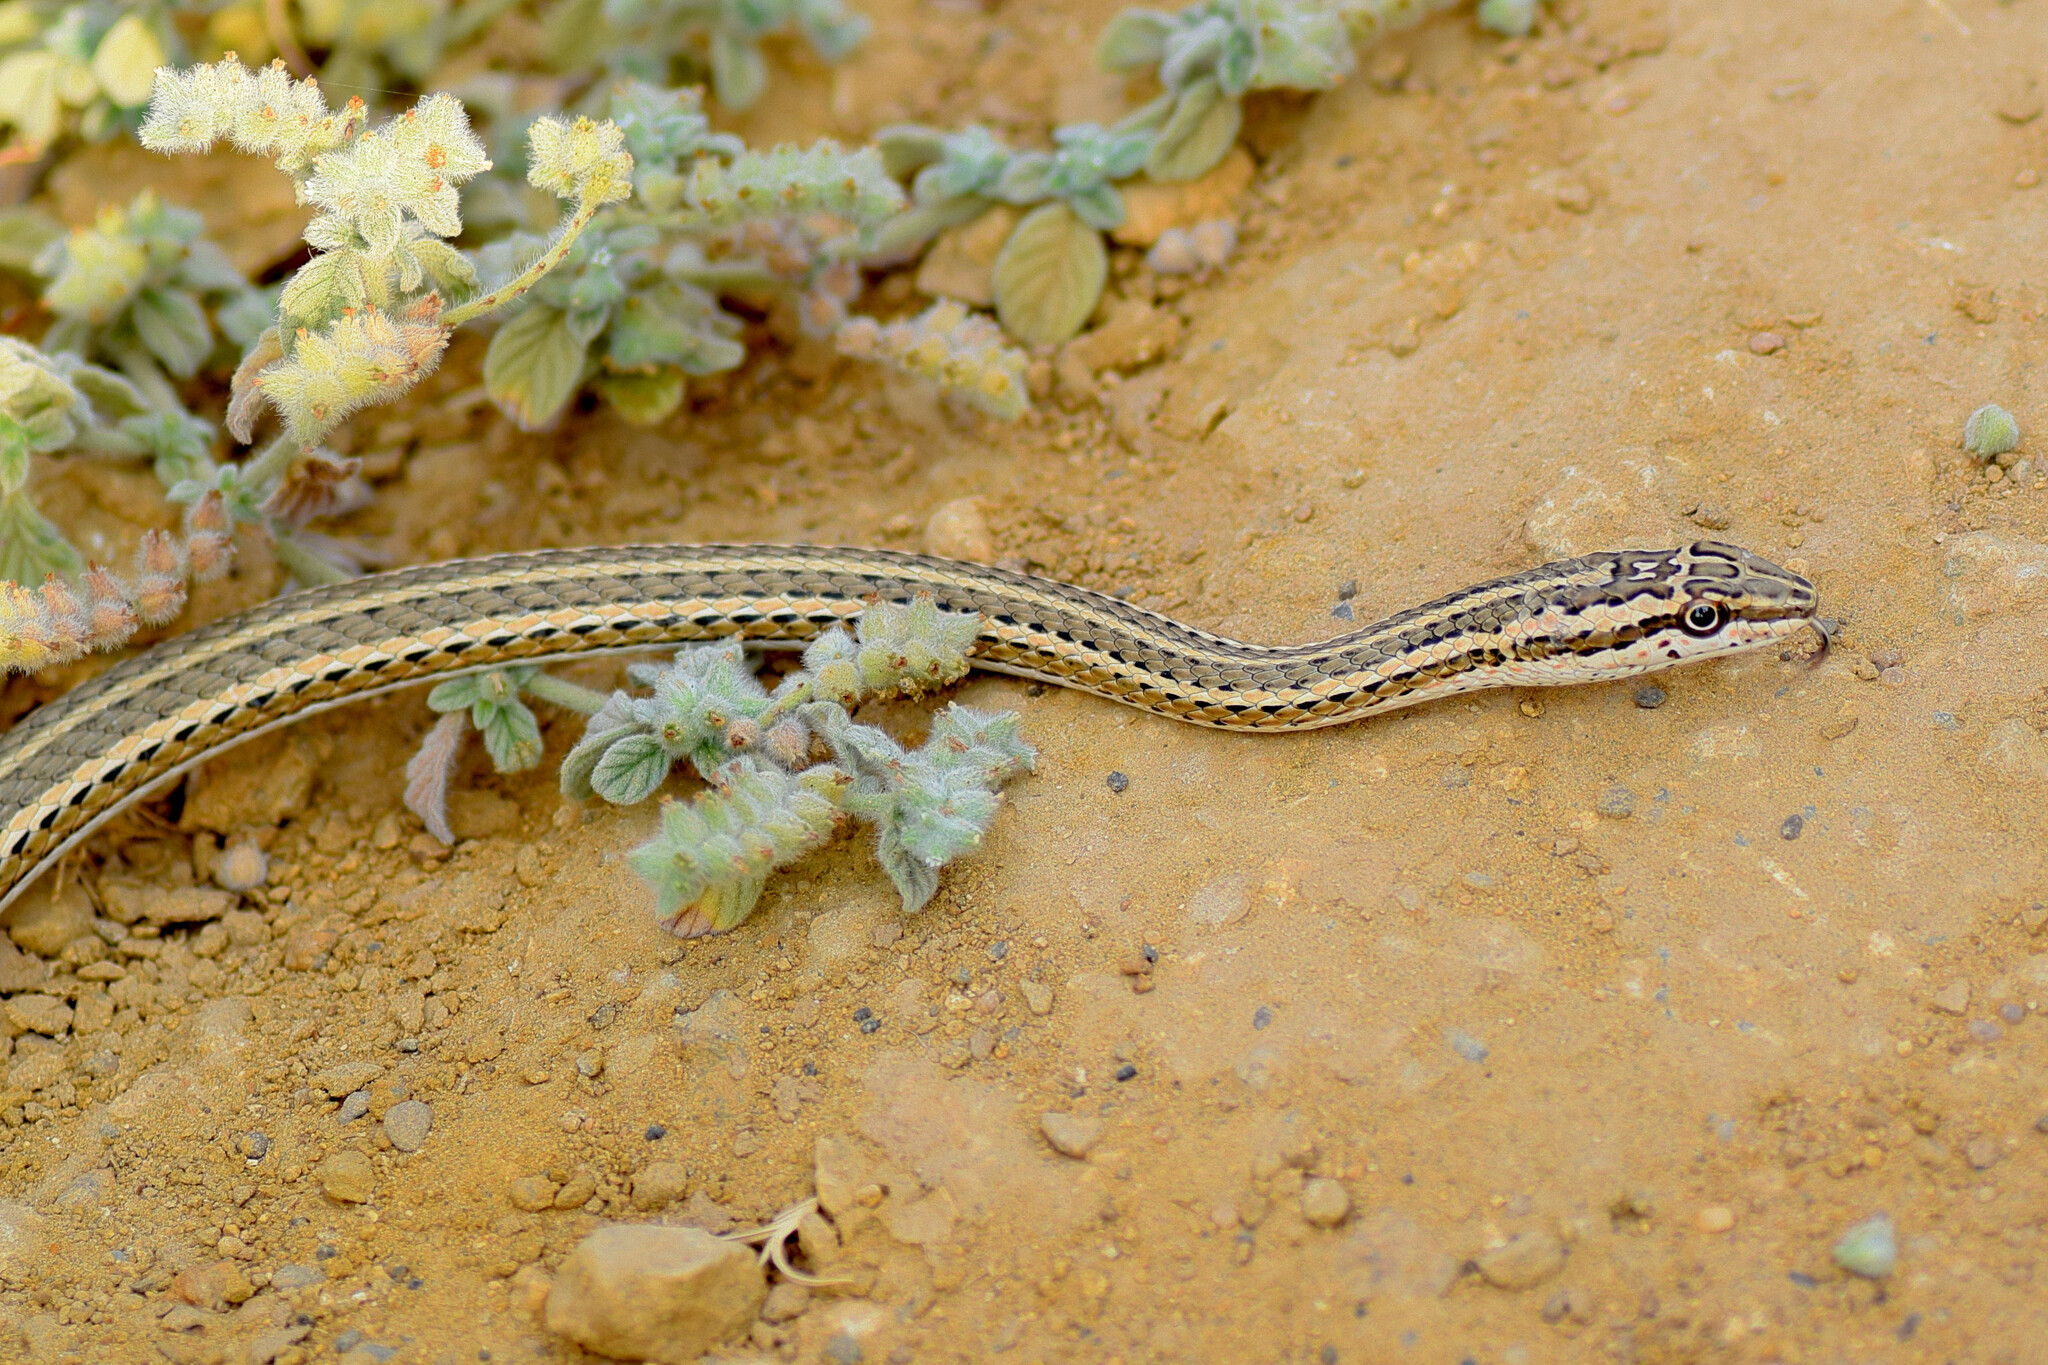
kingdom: Animalia
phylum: Chordata
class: Squamata
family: Psammophiidae
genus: Psammophis
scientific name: Psammophis schokari
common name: Schokari sand racer
